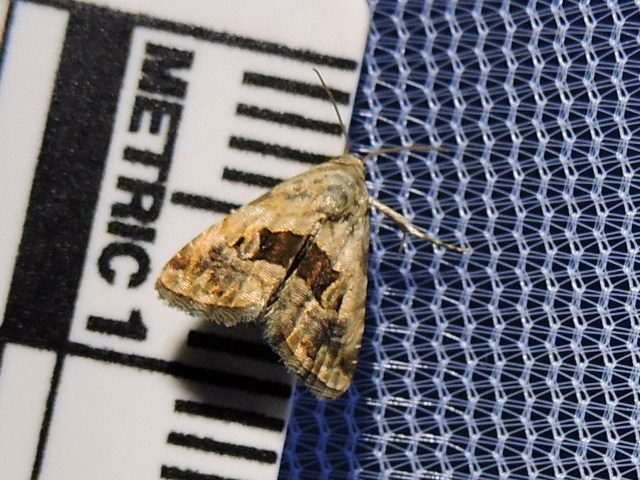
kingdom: Animalia
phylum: Arthropoda
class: Insecta
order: Lepidoptera
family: Noctuidae
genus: Tripudia
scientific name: Tripudia quadrifera
